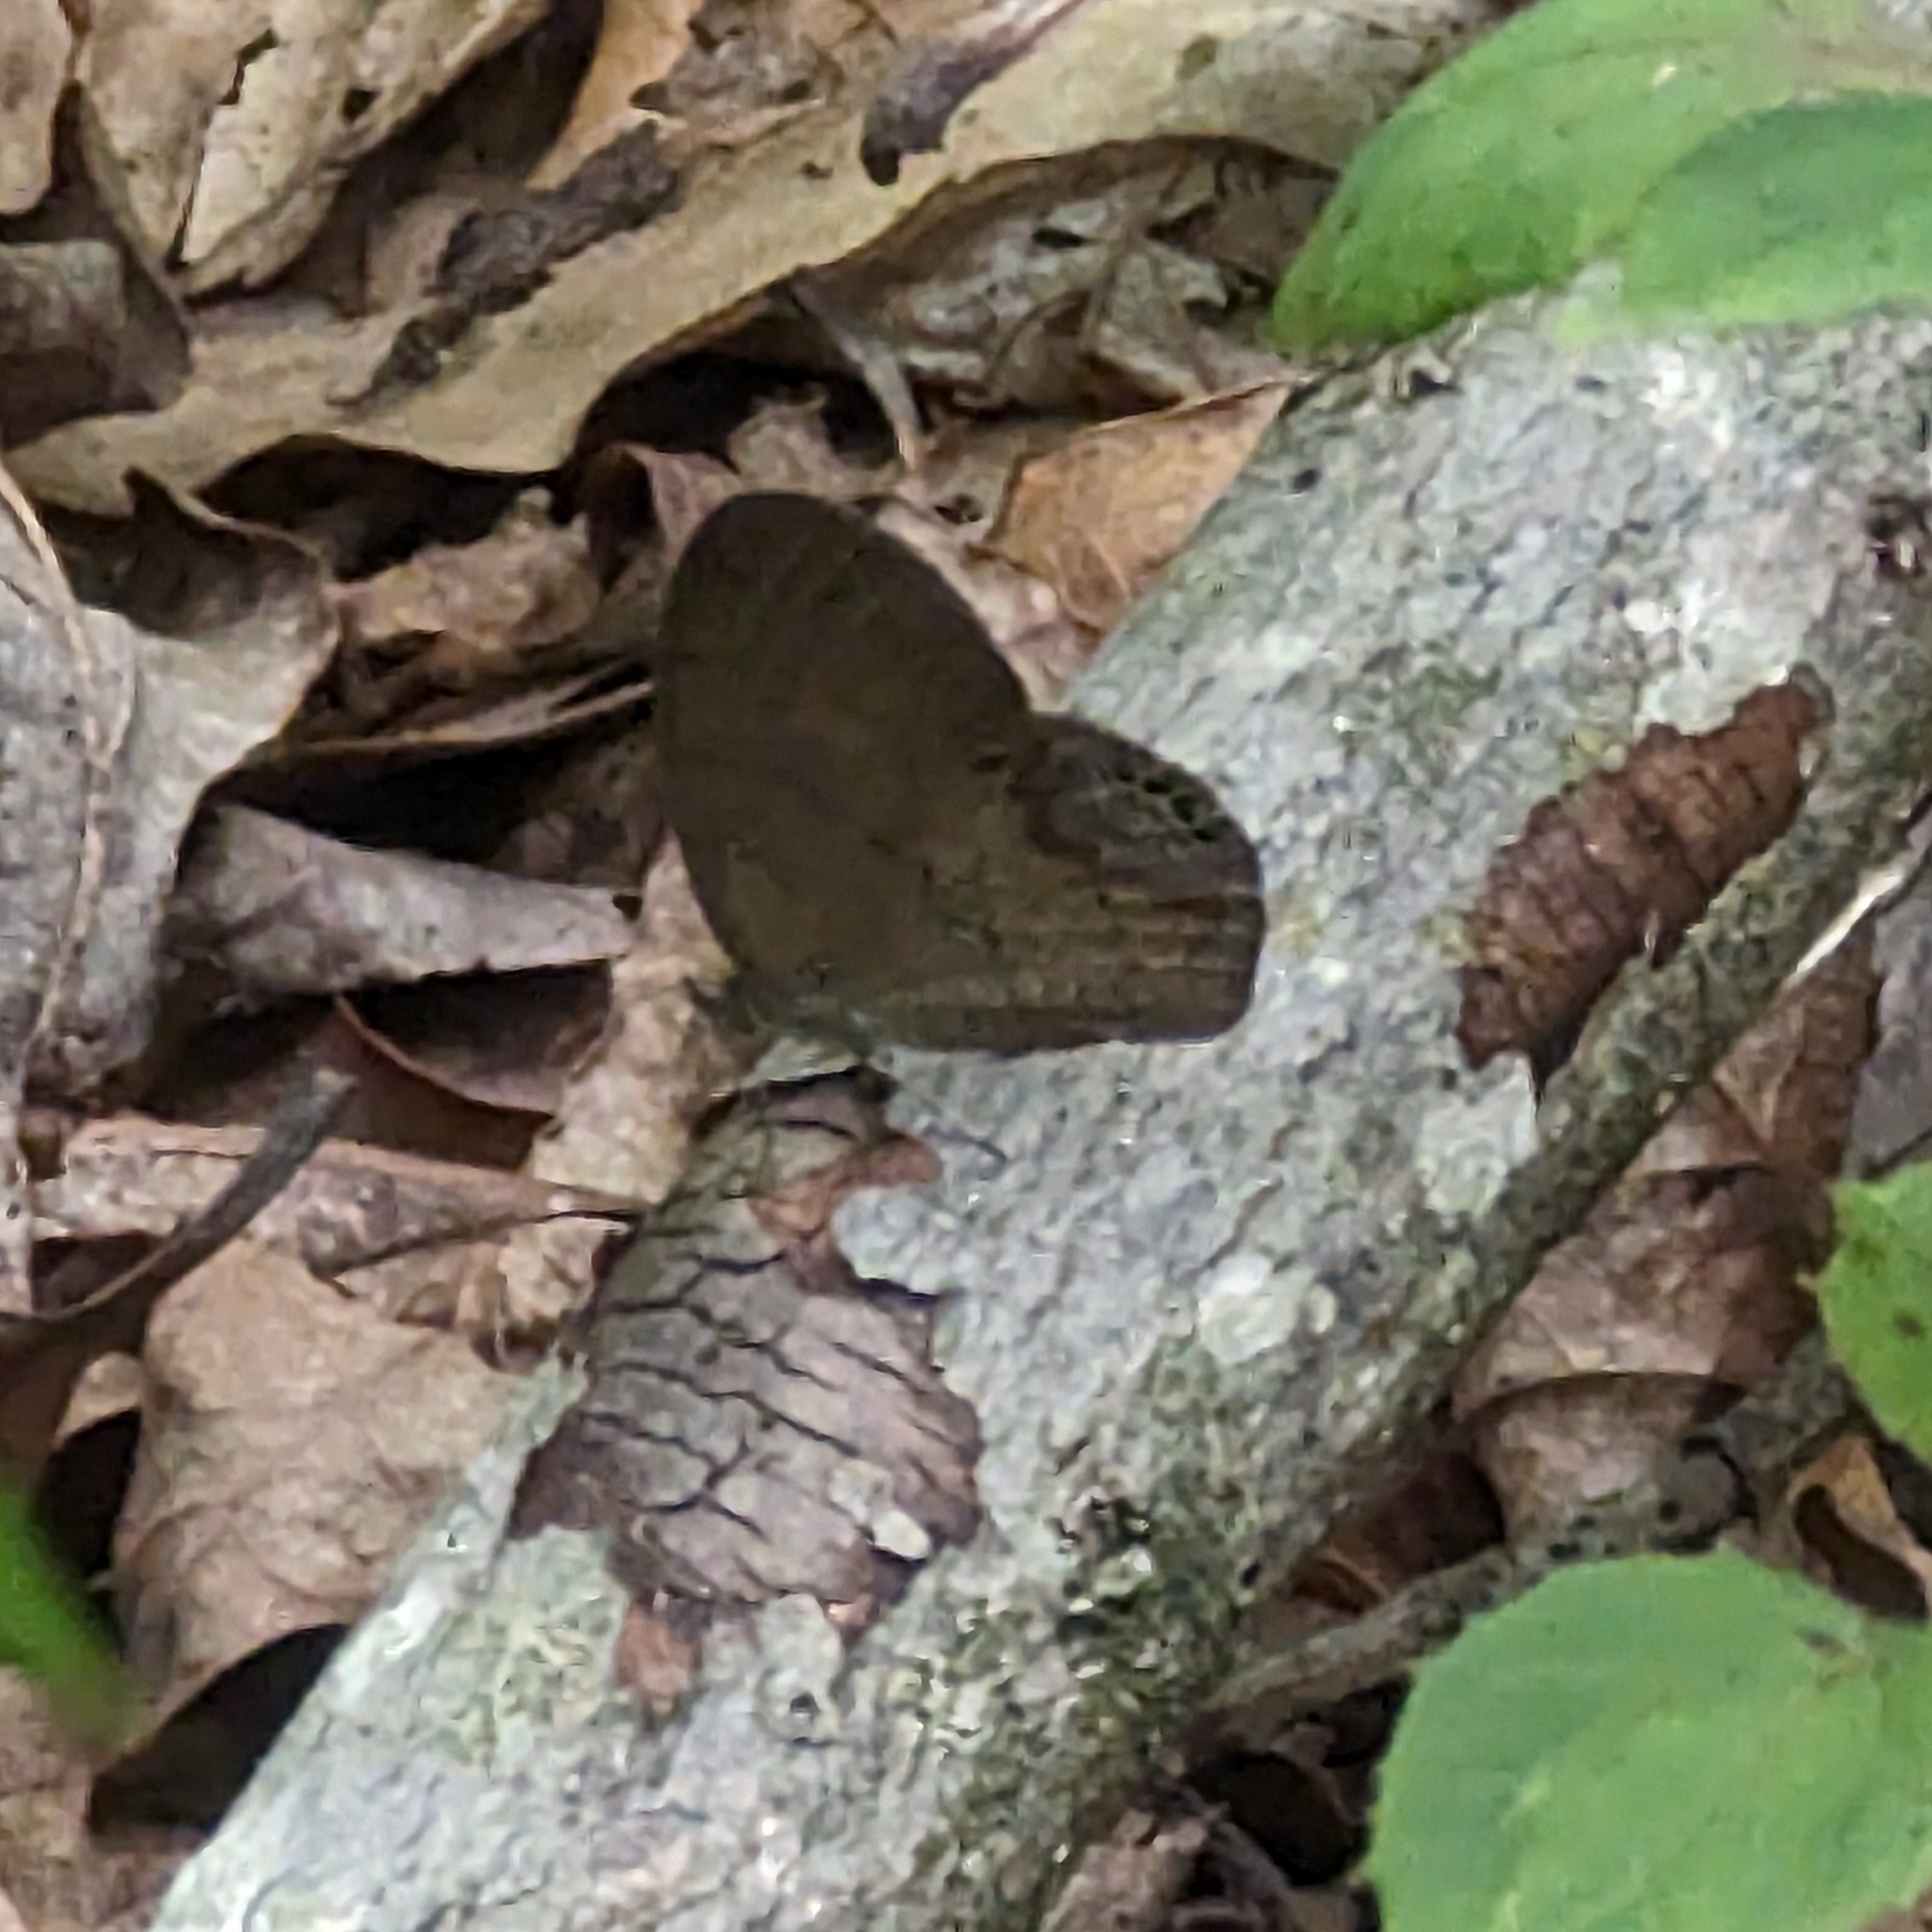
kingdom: Animalia
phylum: Arthropoda
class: Insecta
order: Lepidoptera
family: Nymphalidae
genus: Euptychia
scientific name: Euptychia cornelius
